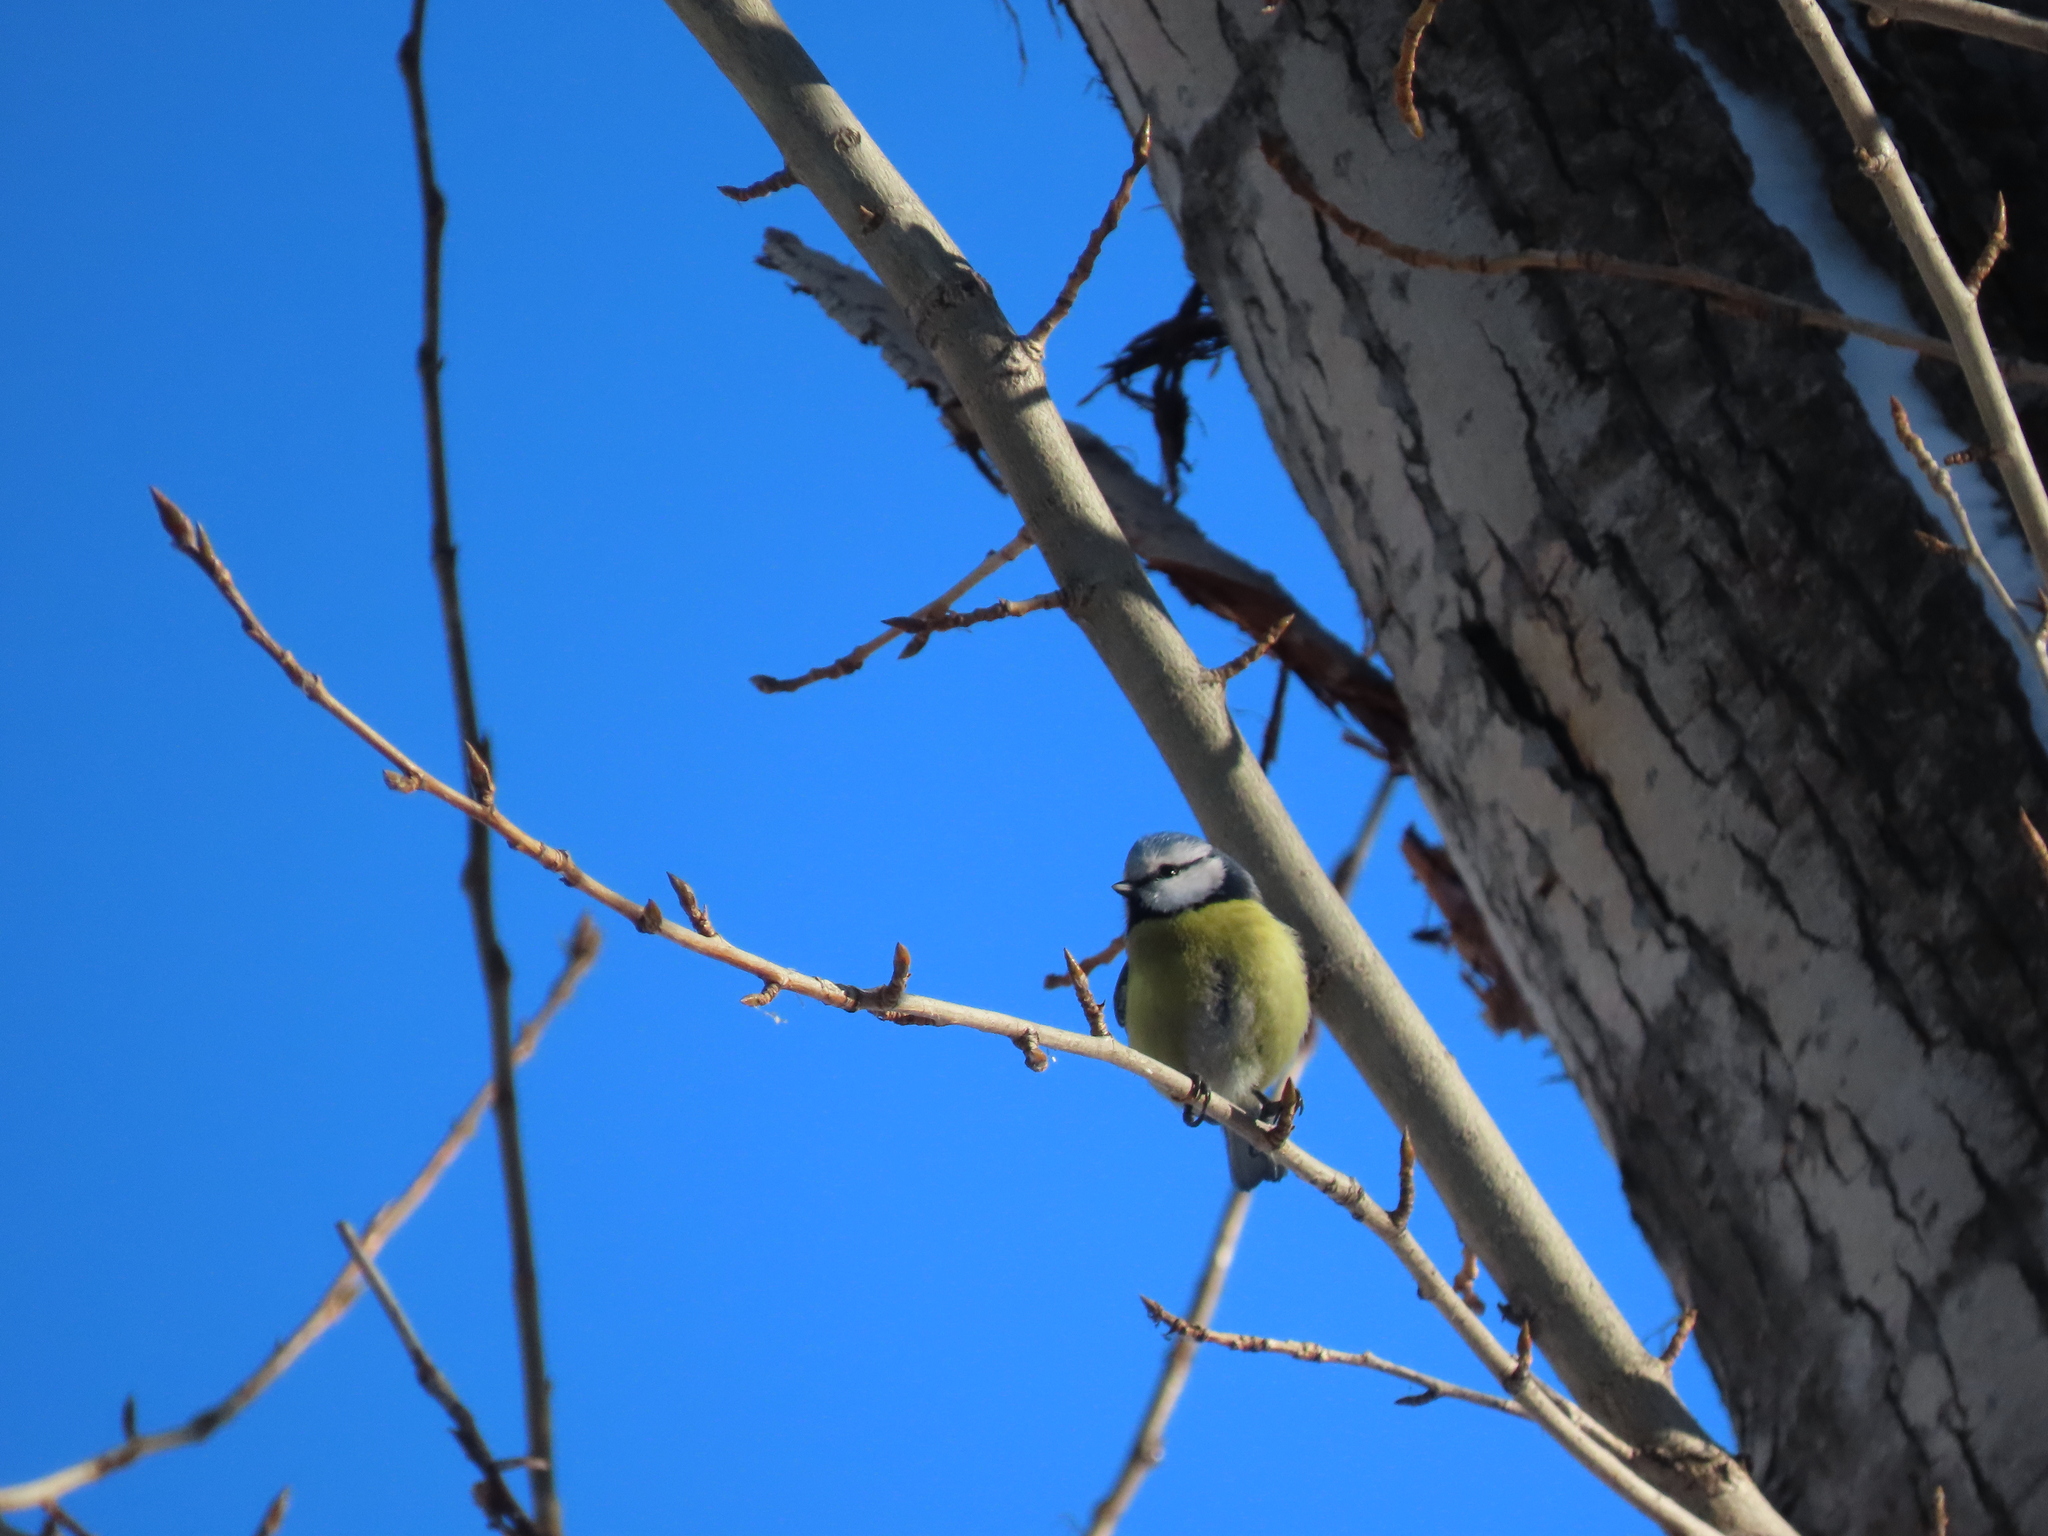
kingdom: Animalia
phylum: Chordata
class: Aves
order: Passeriformes
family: Paridae
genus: Cyanistes
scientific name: Cyanistes caeruleus
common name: Eurasian blue tit
